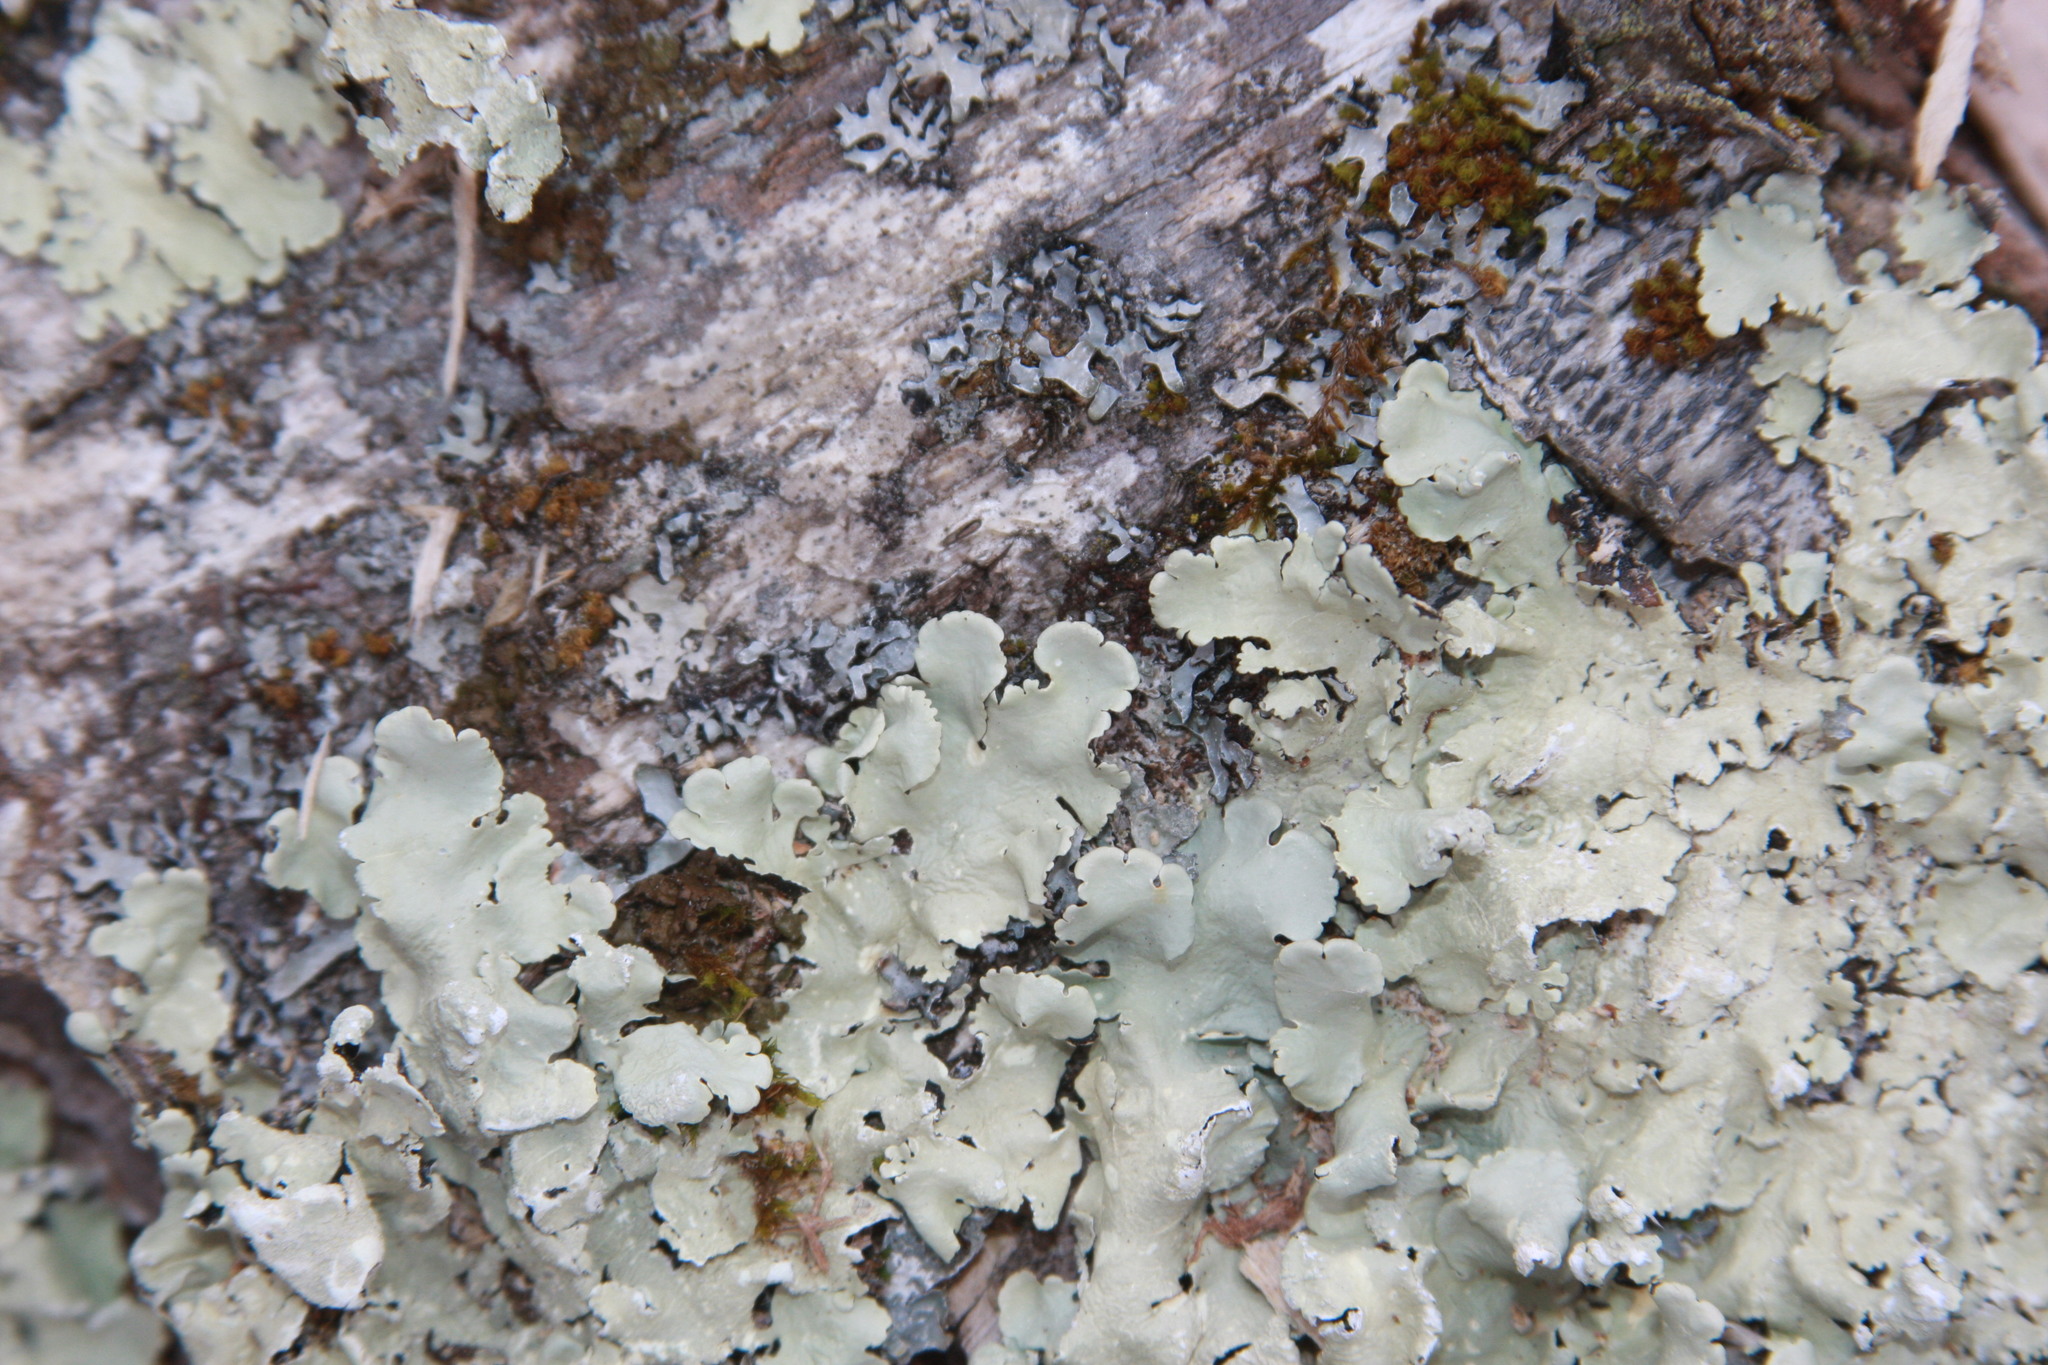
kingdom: Fungi
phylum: Ascomycota
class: Lecanoromycetes
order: Lecanorales
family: Parmeliaceae
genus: Flavoparmelia
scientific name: Flavoparmelia caperata
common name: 40-mile per hour lichen
